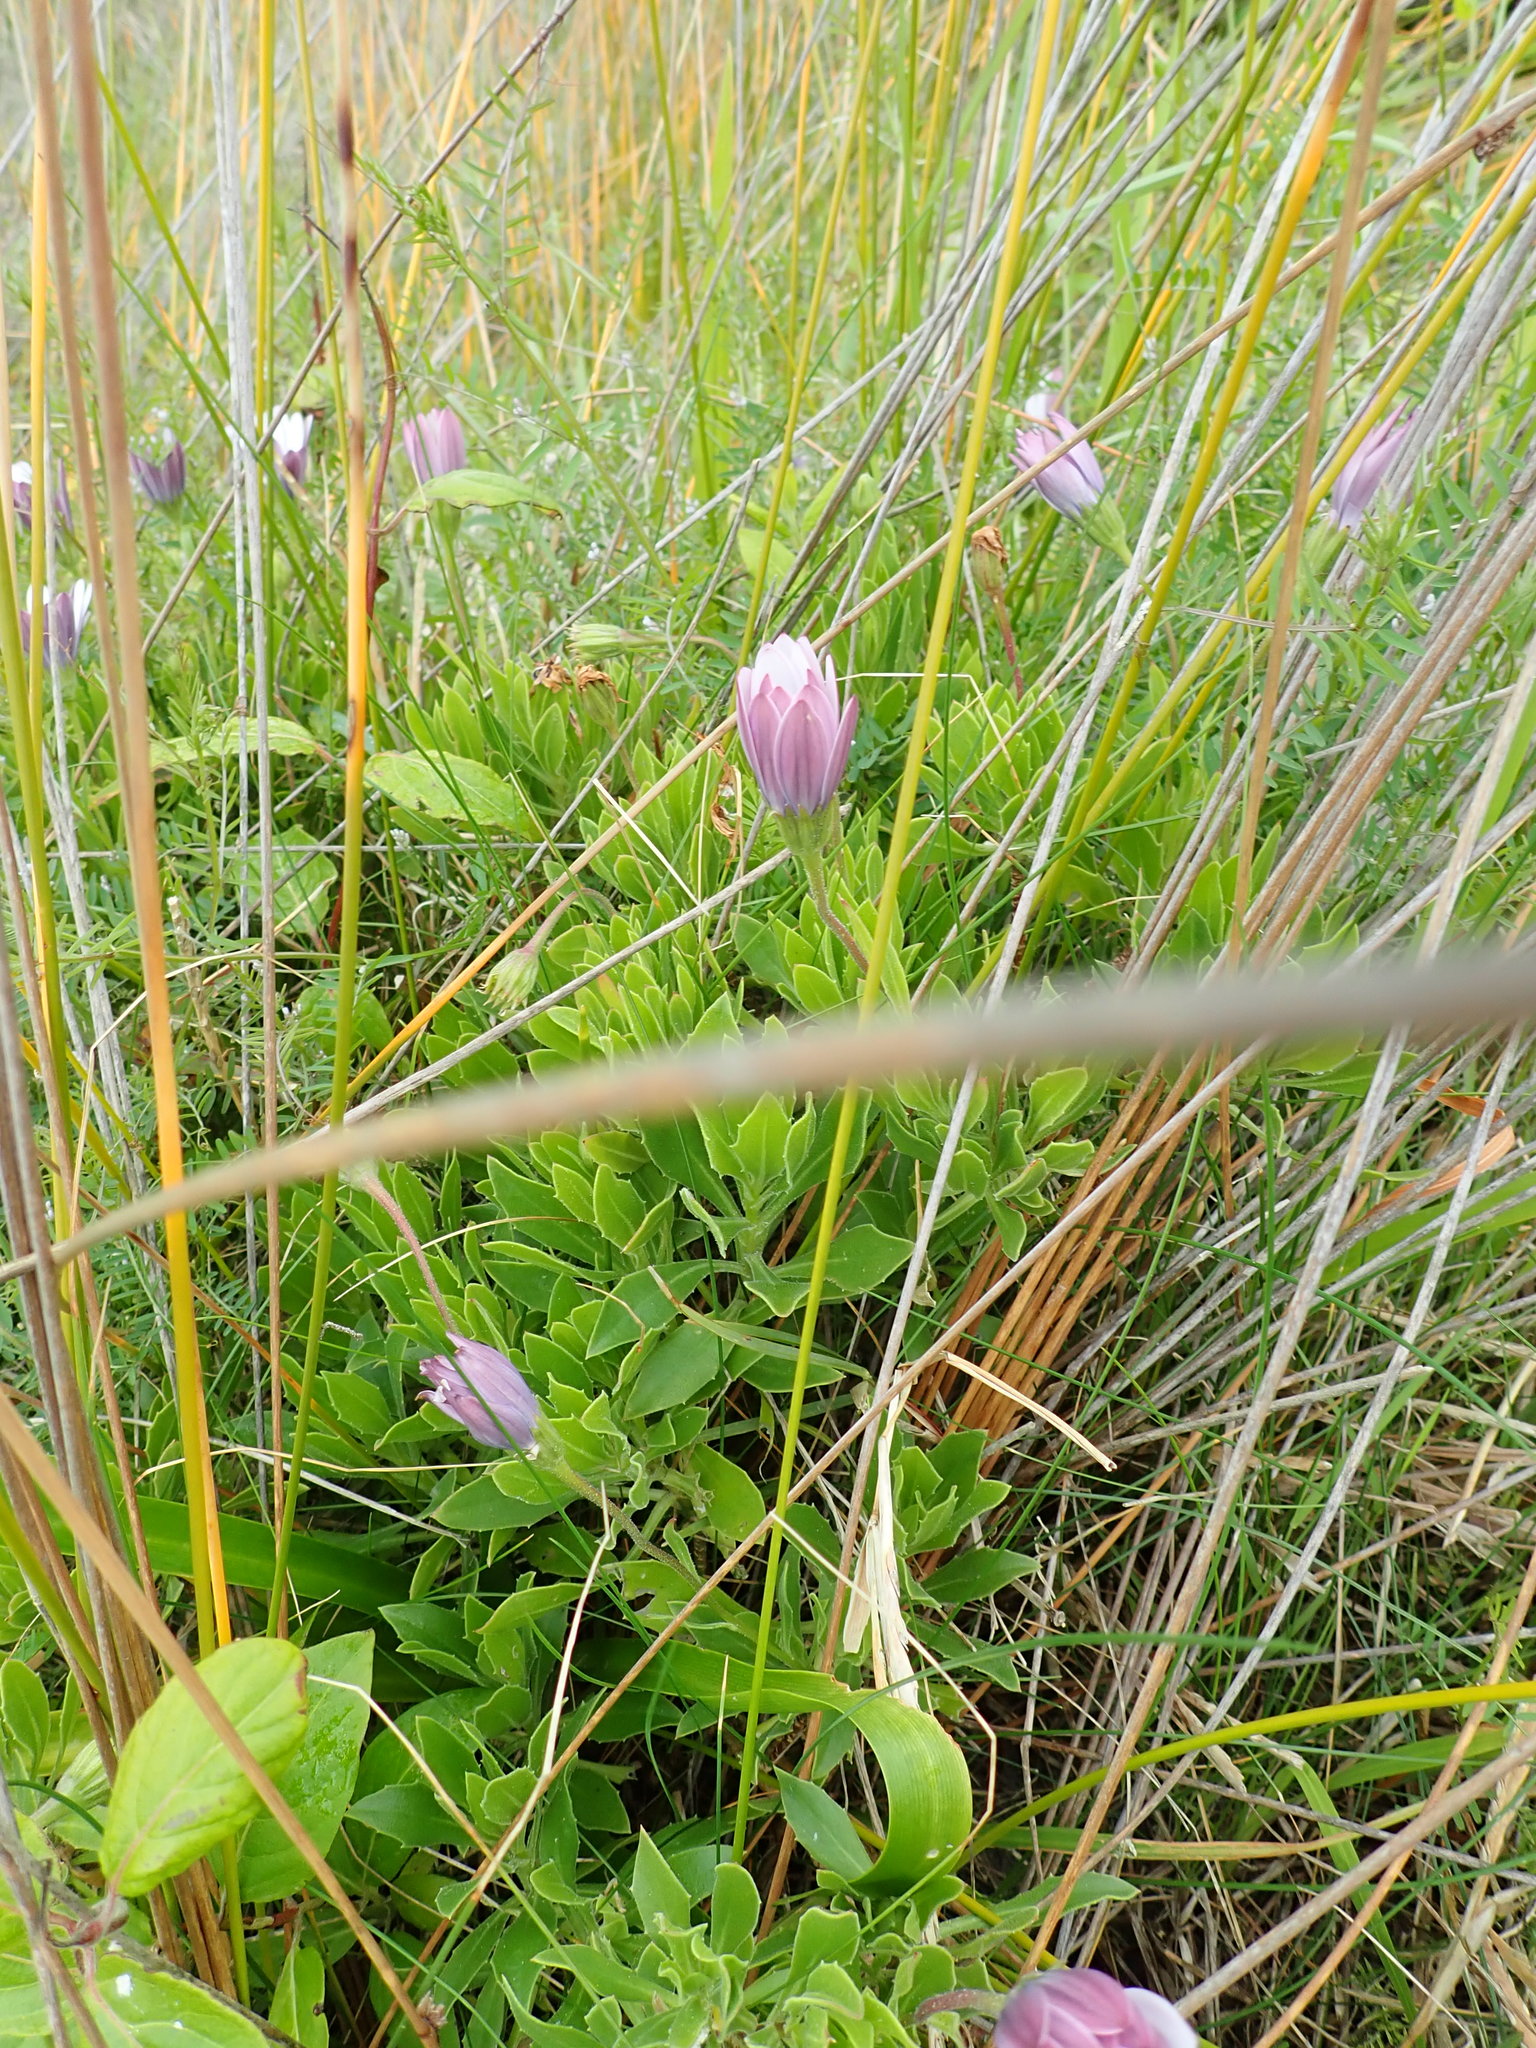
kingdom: Plantae
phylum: Tracheophyta
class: Magnoliopsida
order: Asterales
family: Asteraceae
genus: Dimorphotheca
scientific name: Dimorphotheca fruticosa
